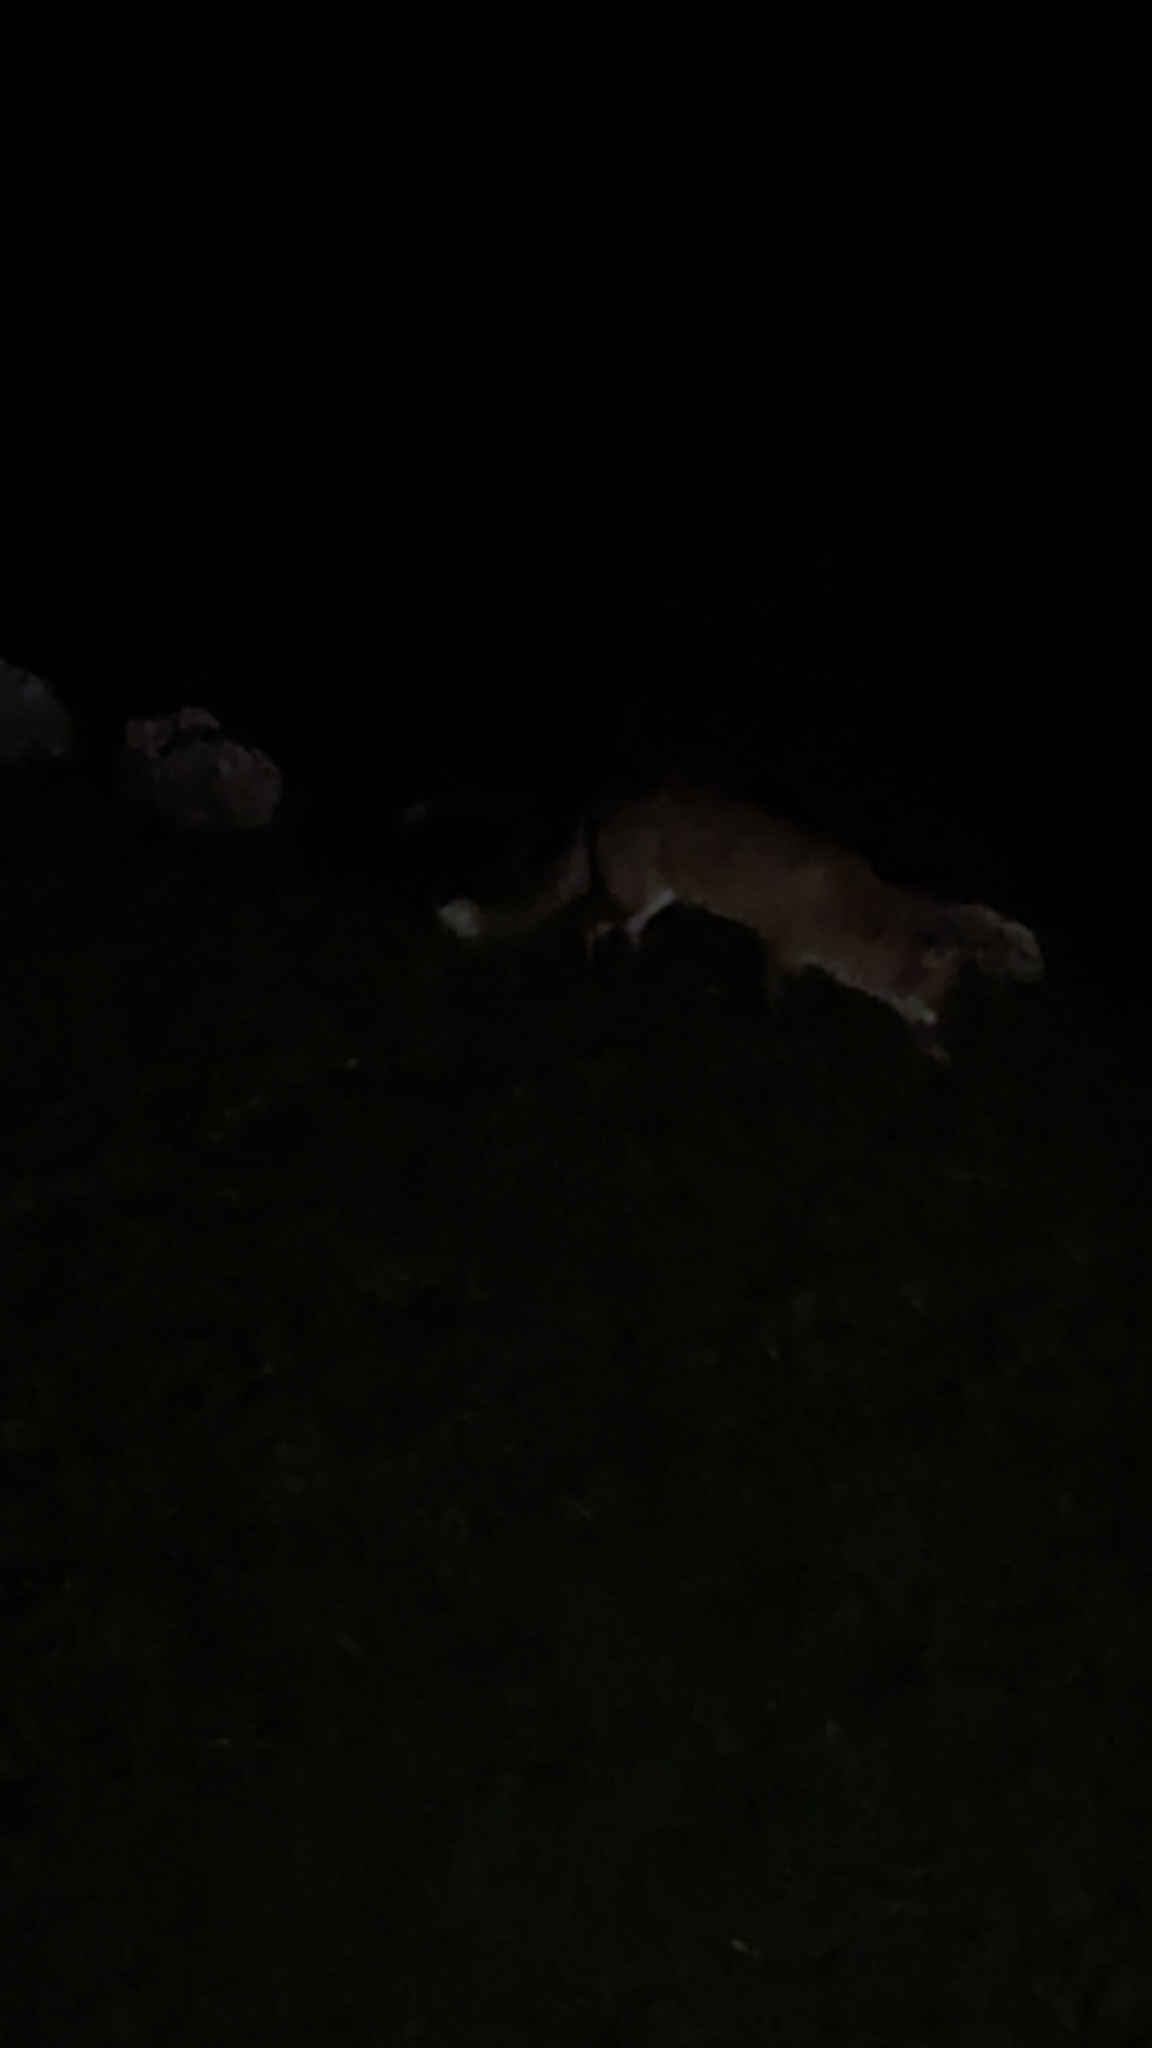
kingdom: Animalia
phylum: Chordata
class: Mammalia
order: Carnivora
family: Canidae
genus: Vulpes
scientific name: Vulpes vulpes
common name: Red fox
